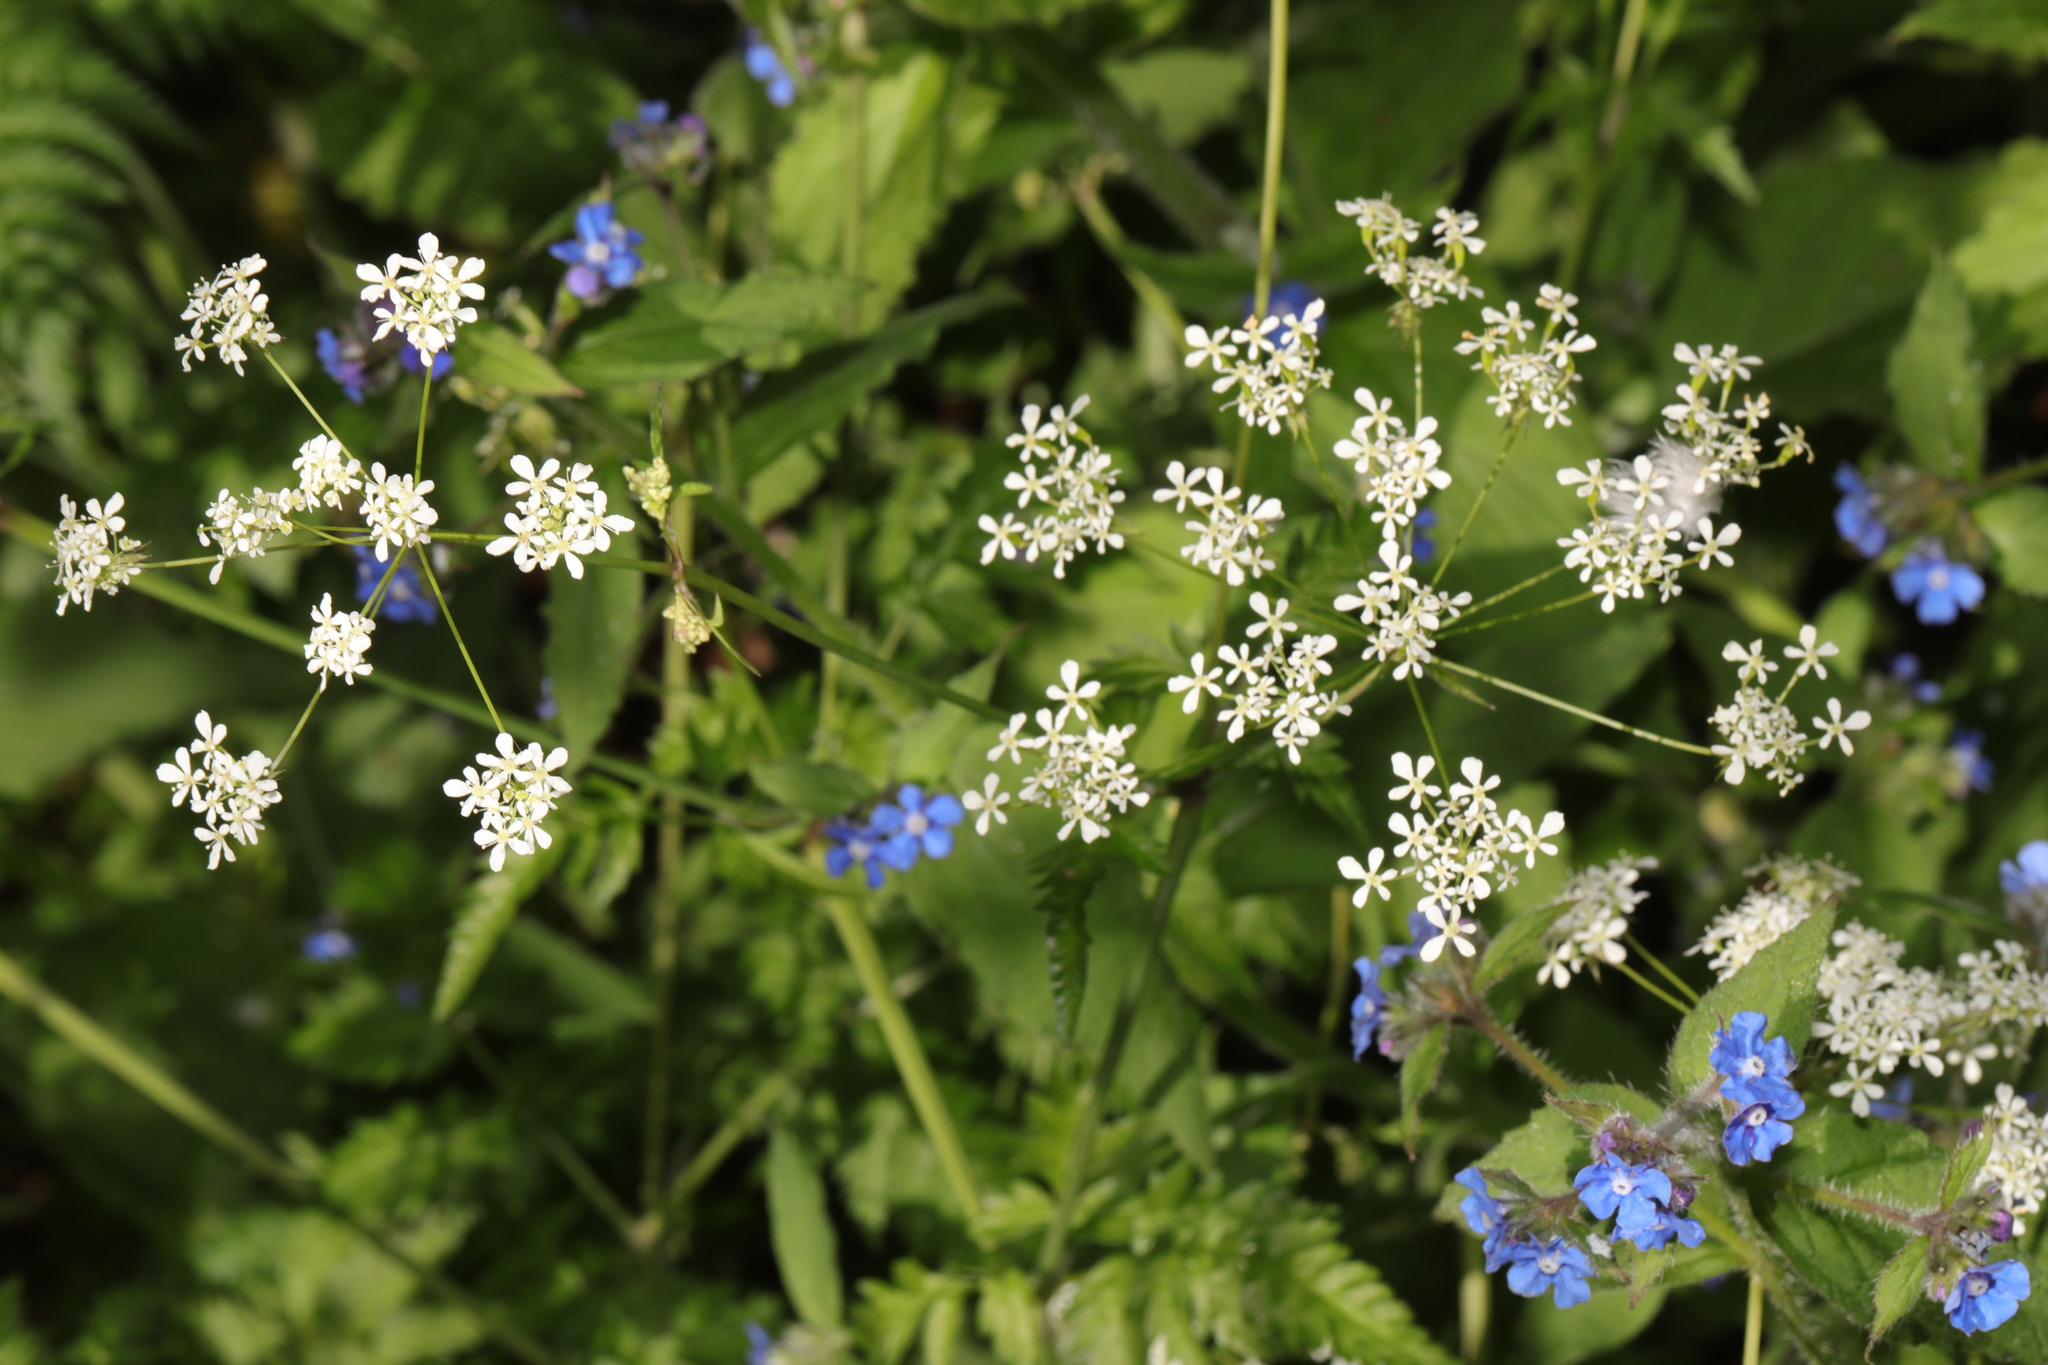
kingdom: Plantae
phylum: Tracheophyta
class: Magnoliopsida
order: Apiales
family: Apiaceae
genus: Anthriscus
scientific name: Anthriscus sylvestris
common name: Cow parsley
